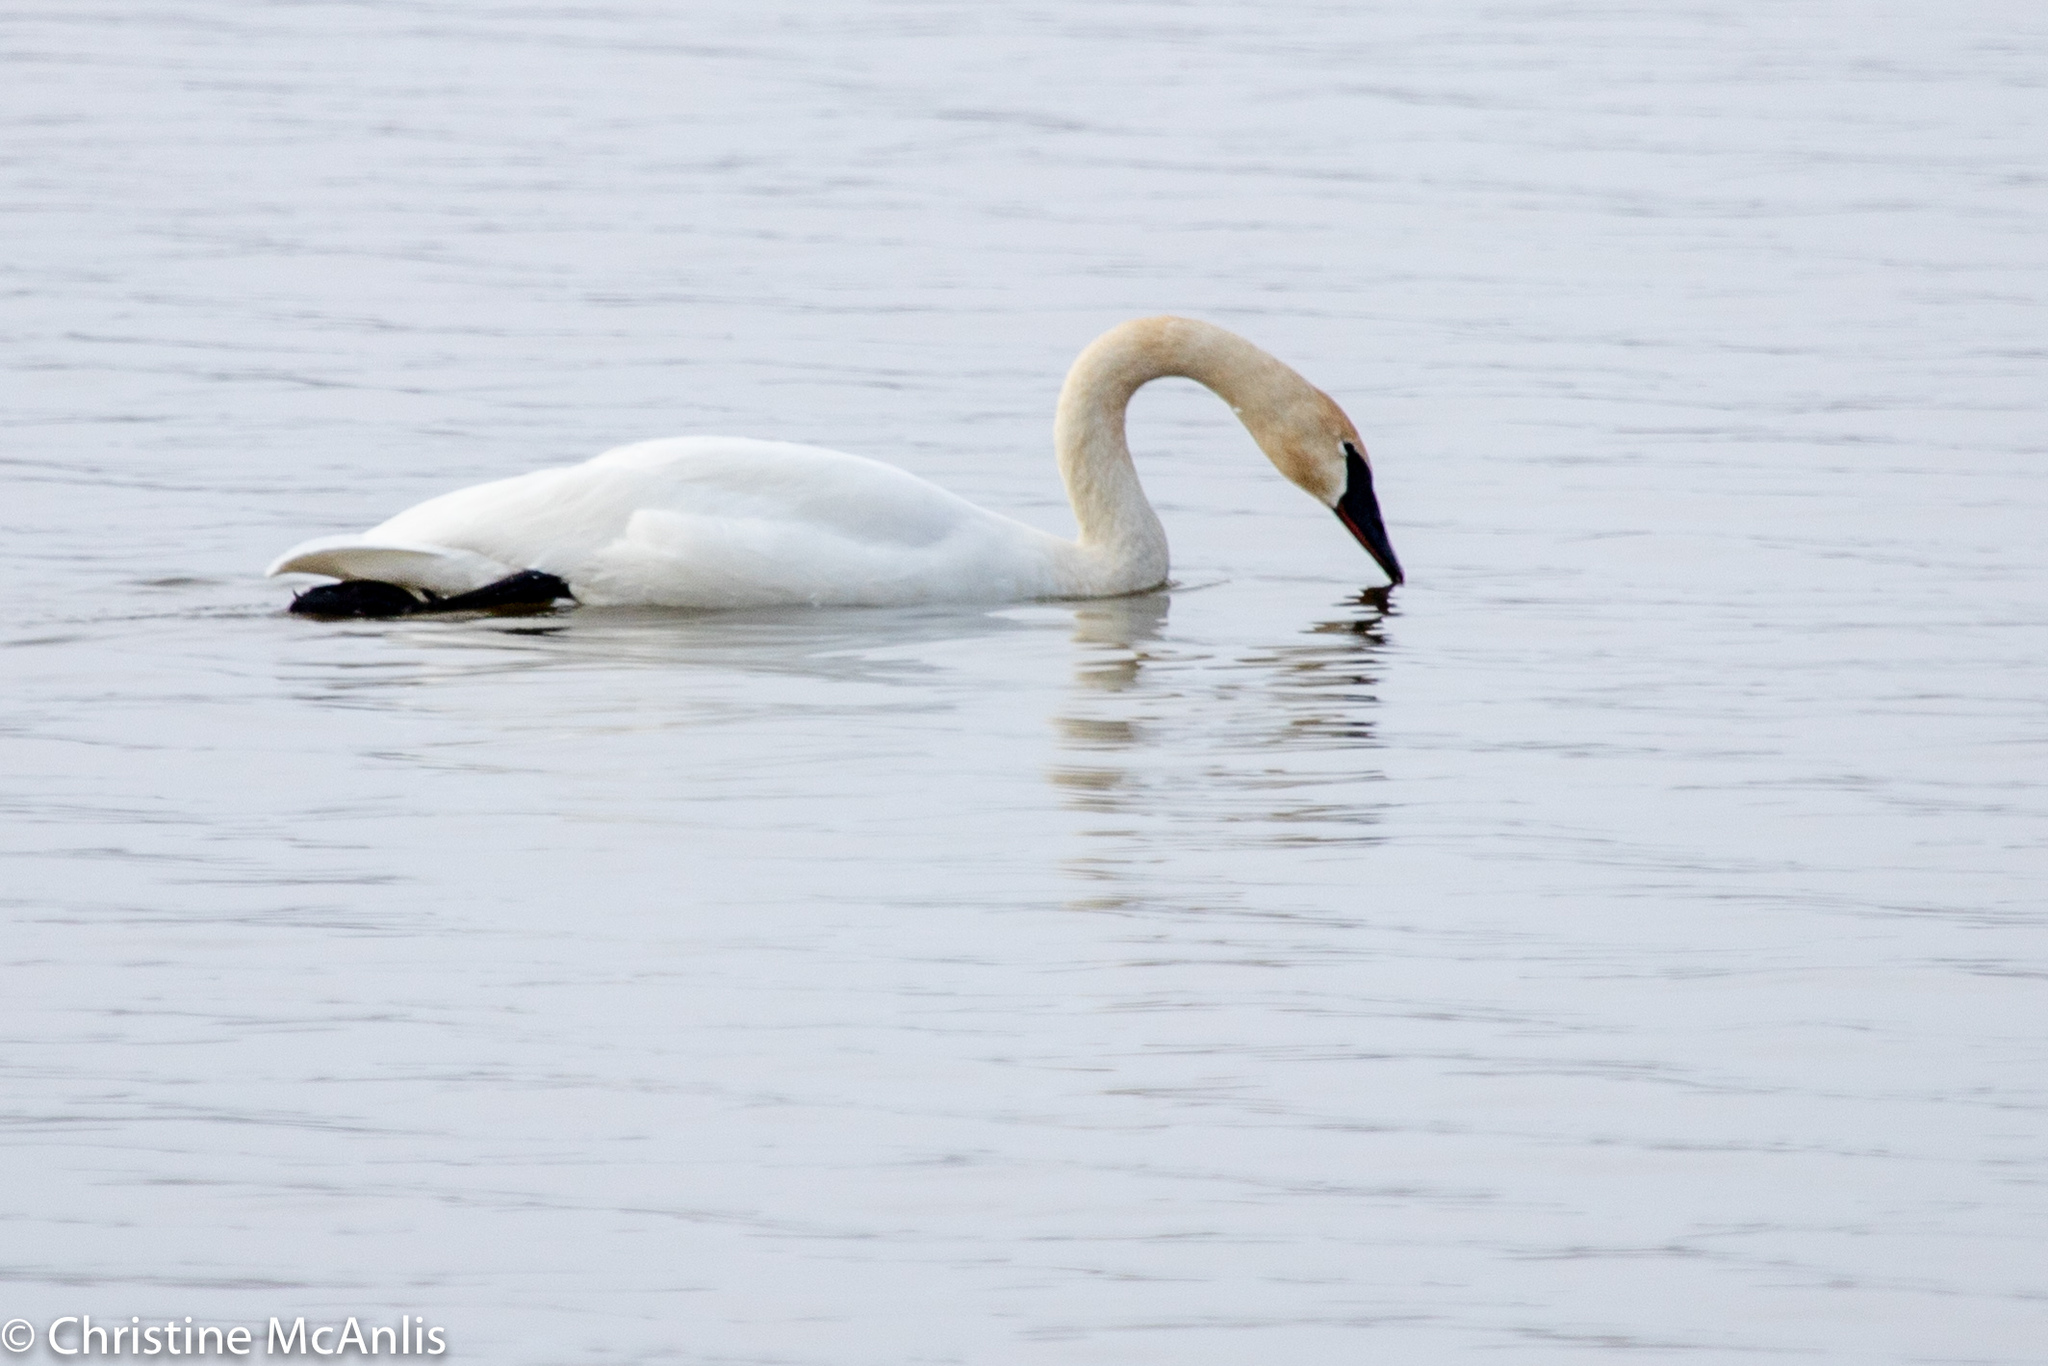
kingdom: Animalia
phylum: Chordata
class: Aves
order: Anseriformes
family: Anatidae
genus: Cygnus
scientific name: Cygnus buccinator
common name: Trumpeter swan
